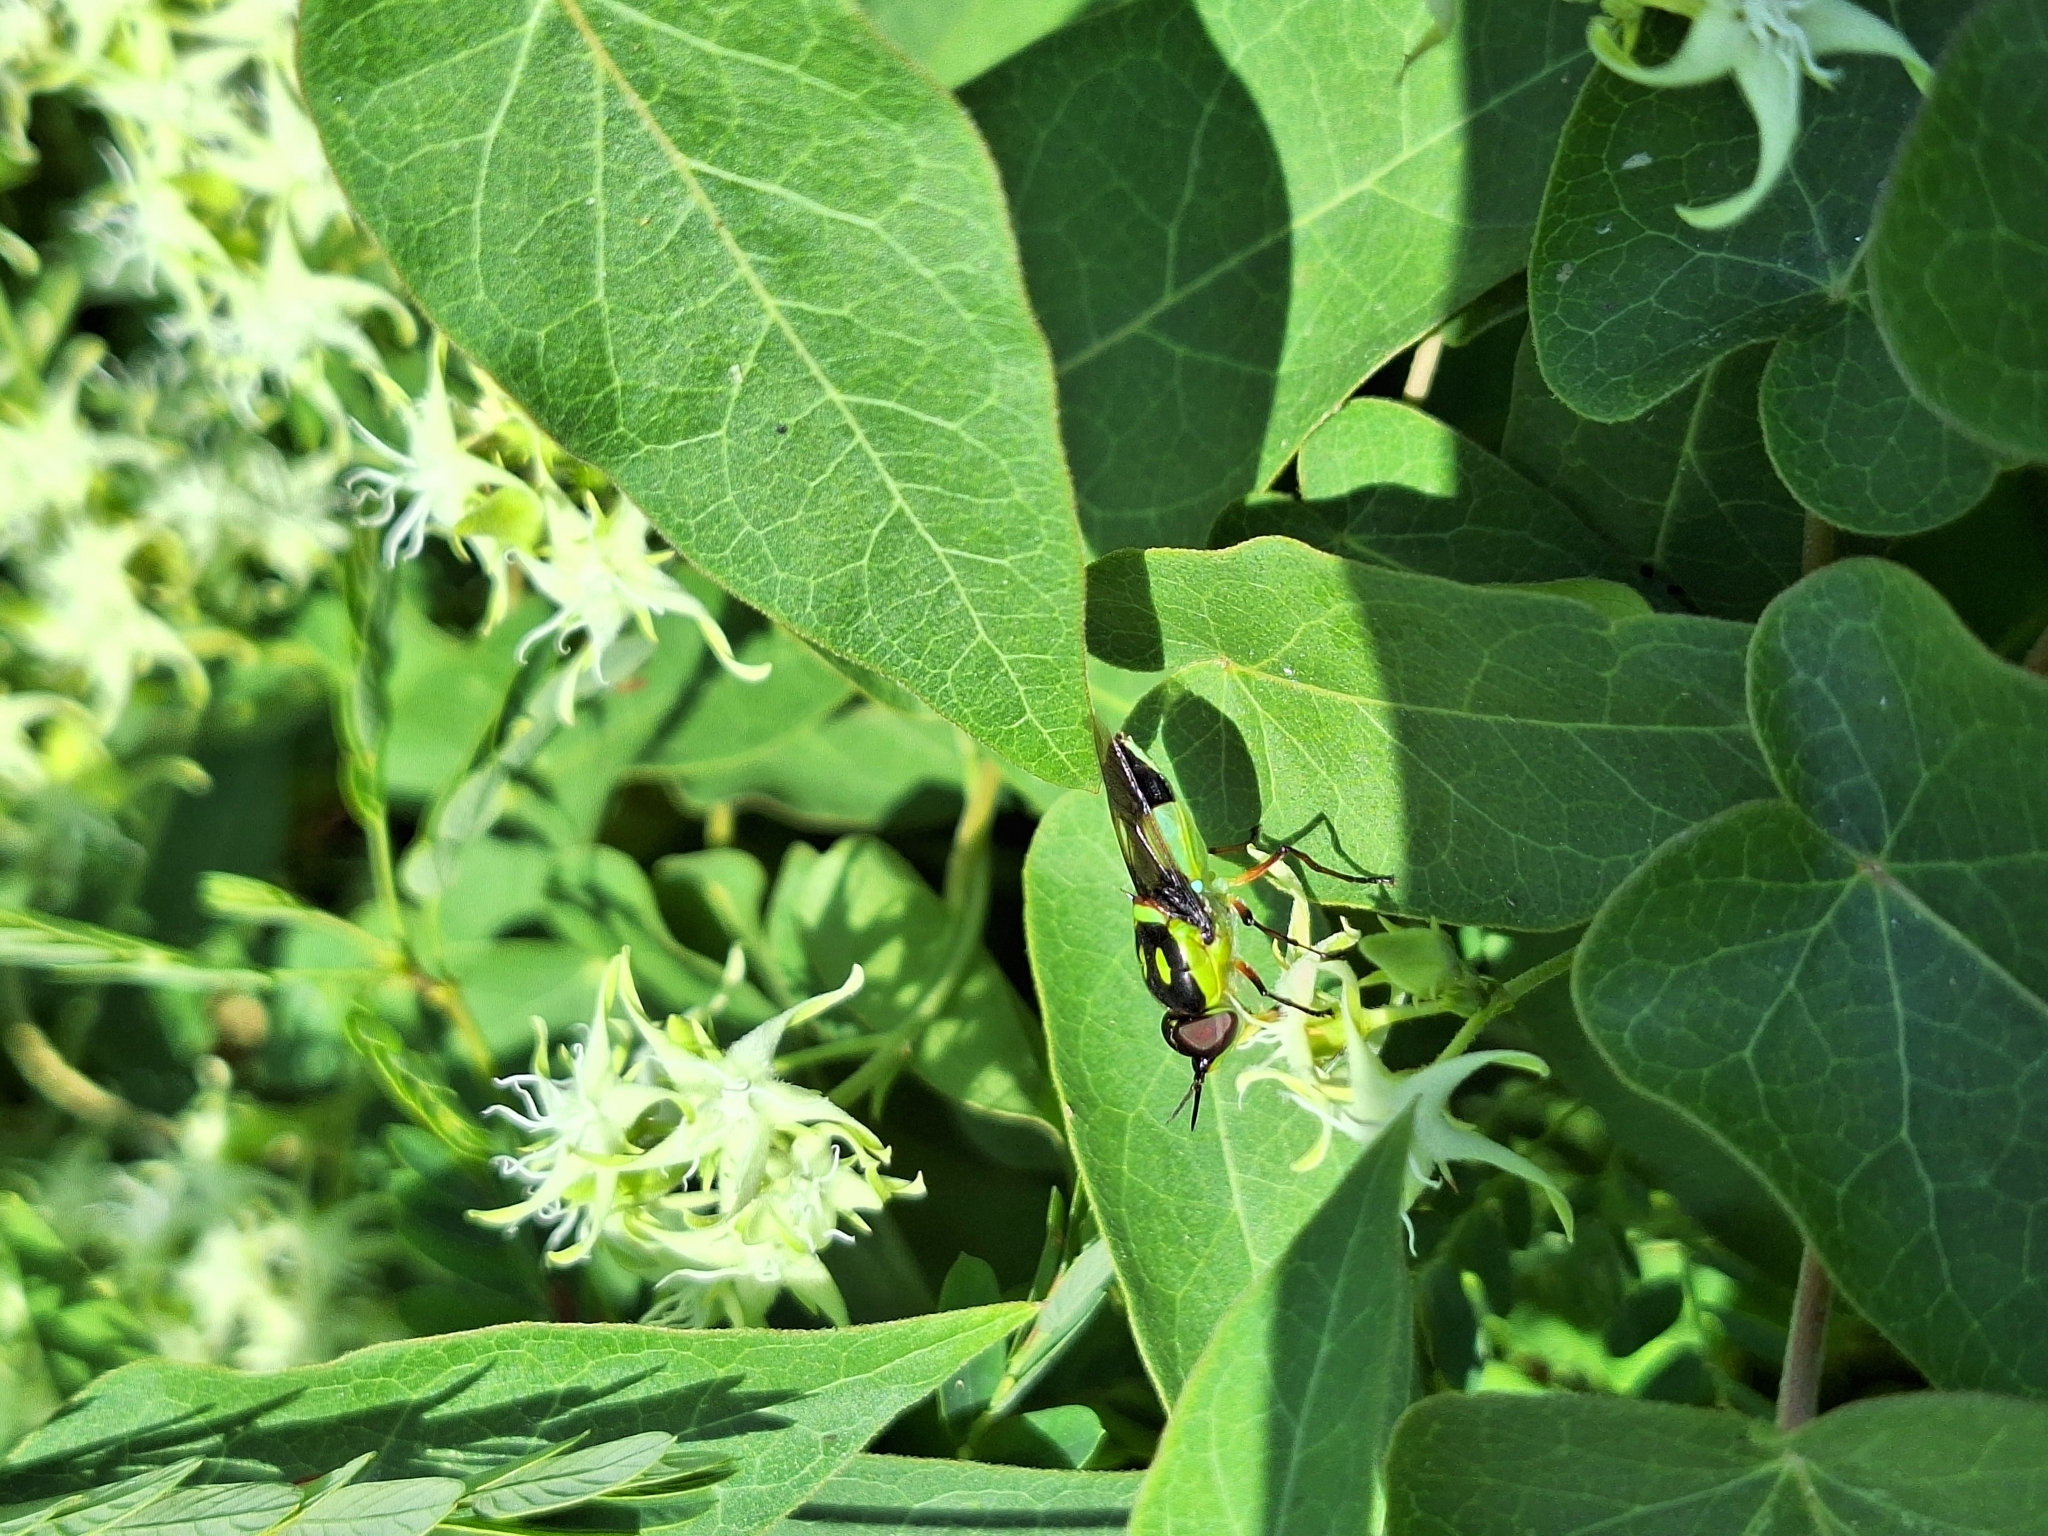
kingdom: Animalia
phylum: Arthropoda
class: Insecta
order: Diptera
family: Stratiomyidae
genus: Hedriodiscus
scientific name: Hedriodiscus pulcher
